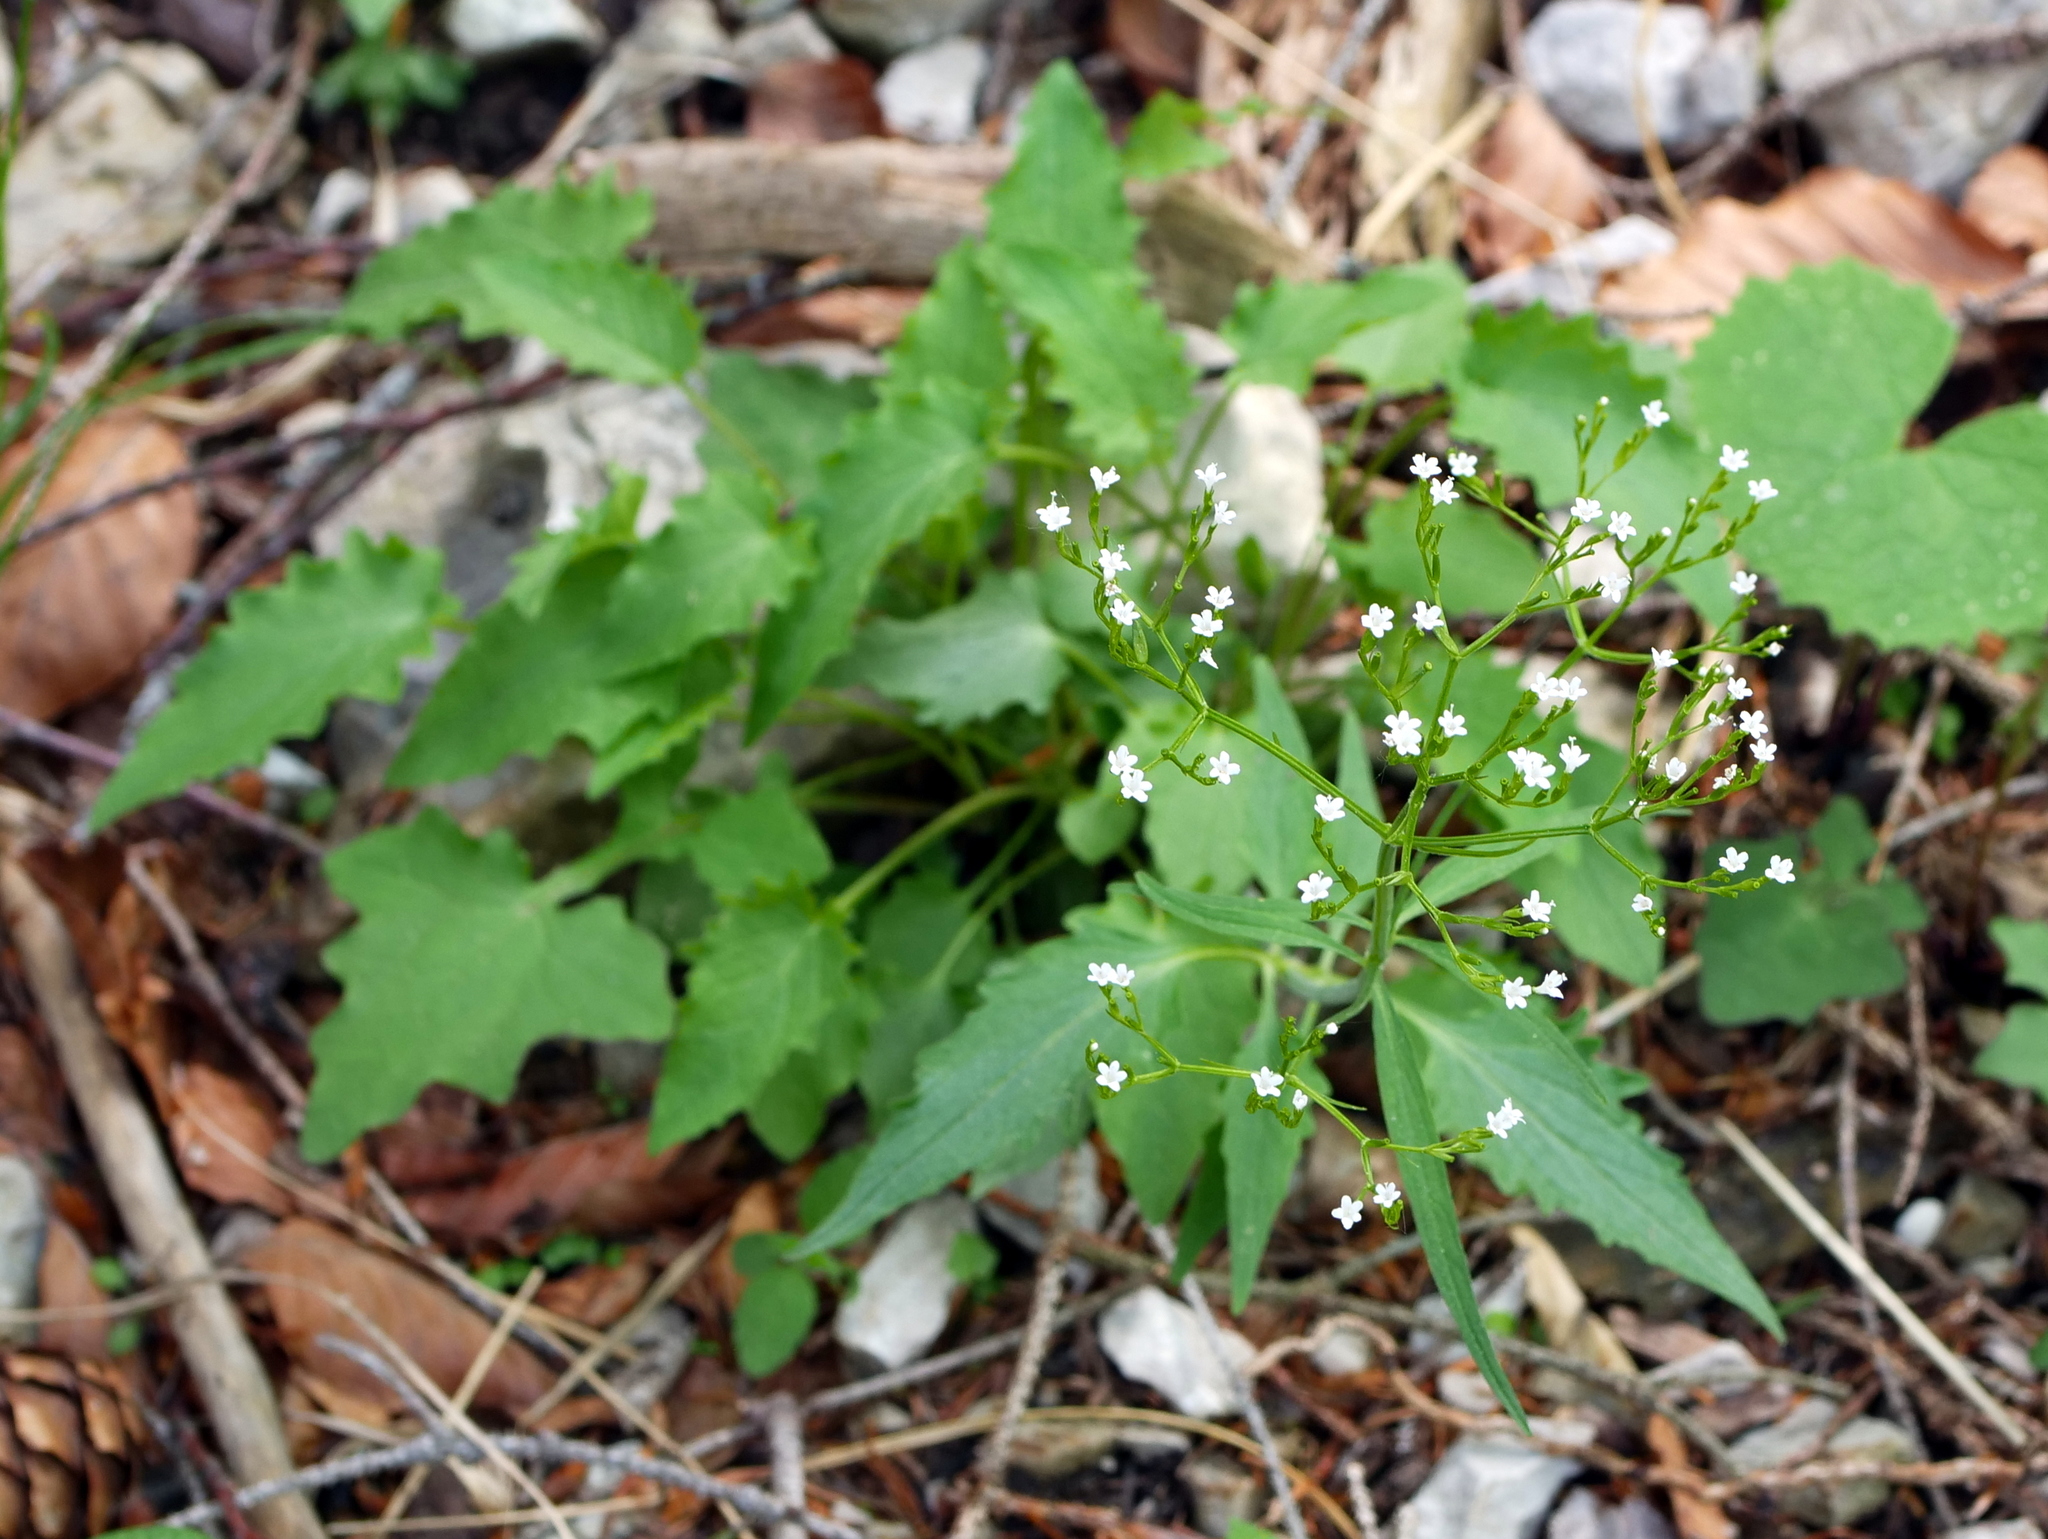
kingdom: Plantae
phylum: Tracheophyta
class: Magnoliopsida
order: Dipsacales
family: Caprifoliaceae
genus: Valeriana
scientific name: Valeriana tripteris
